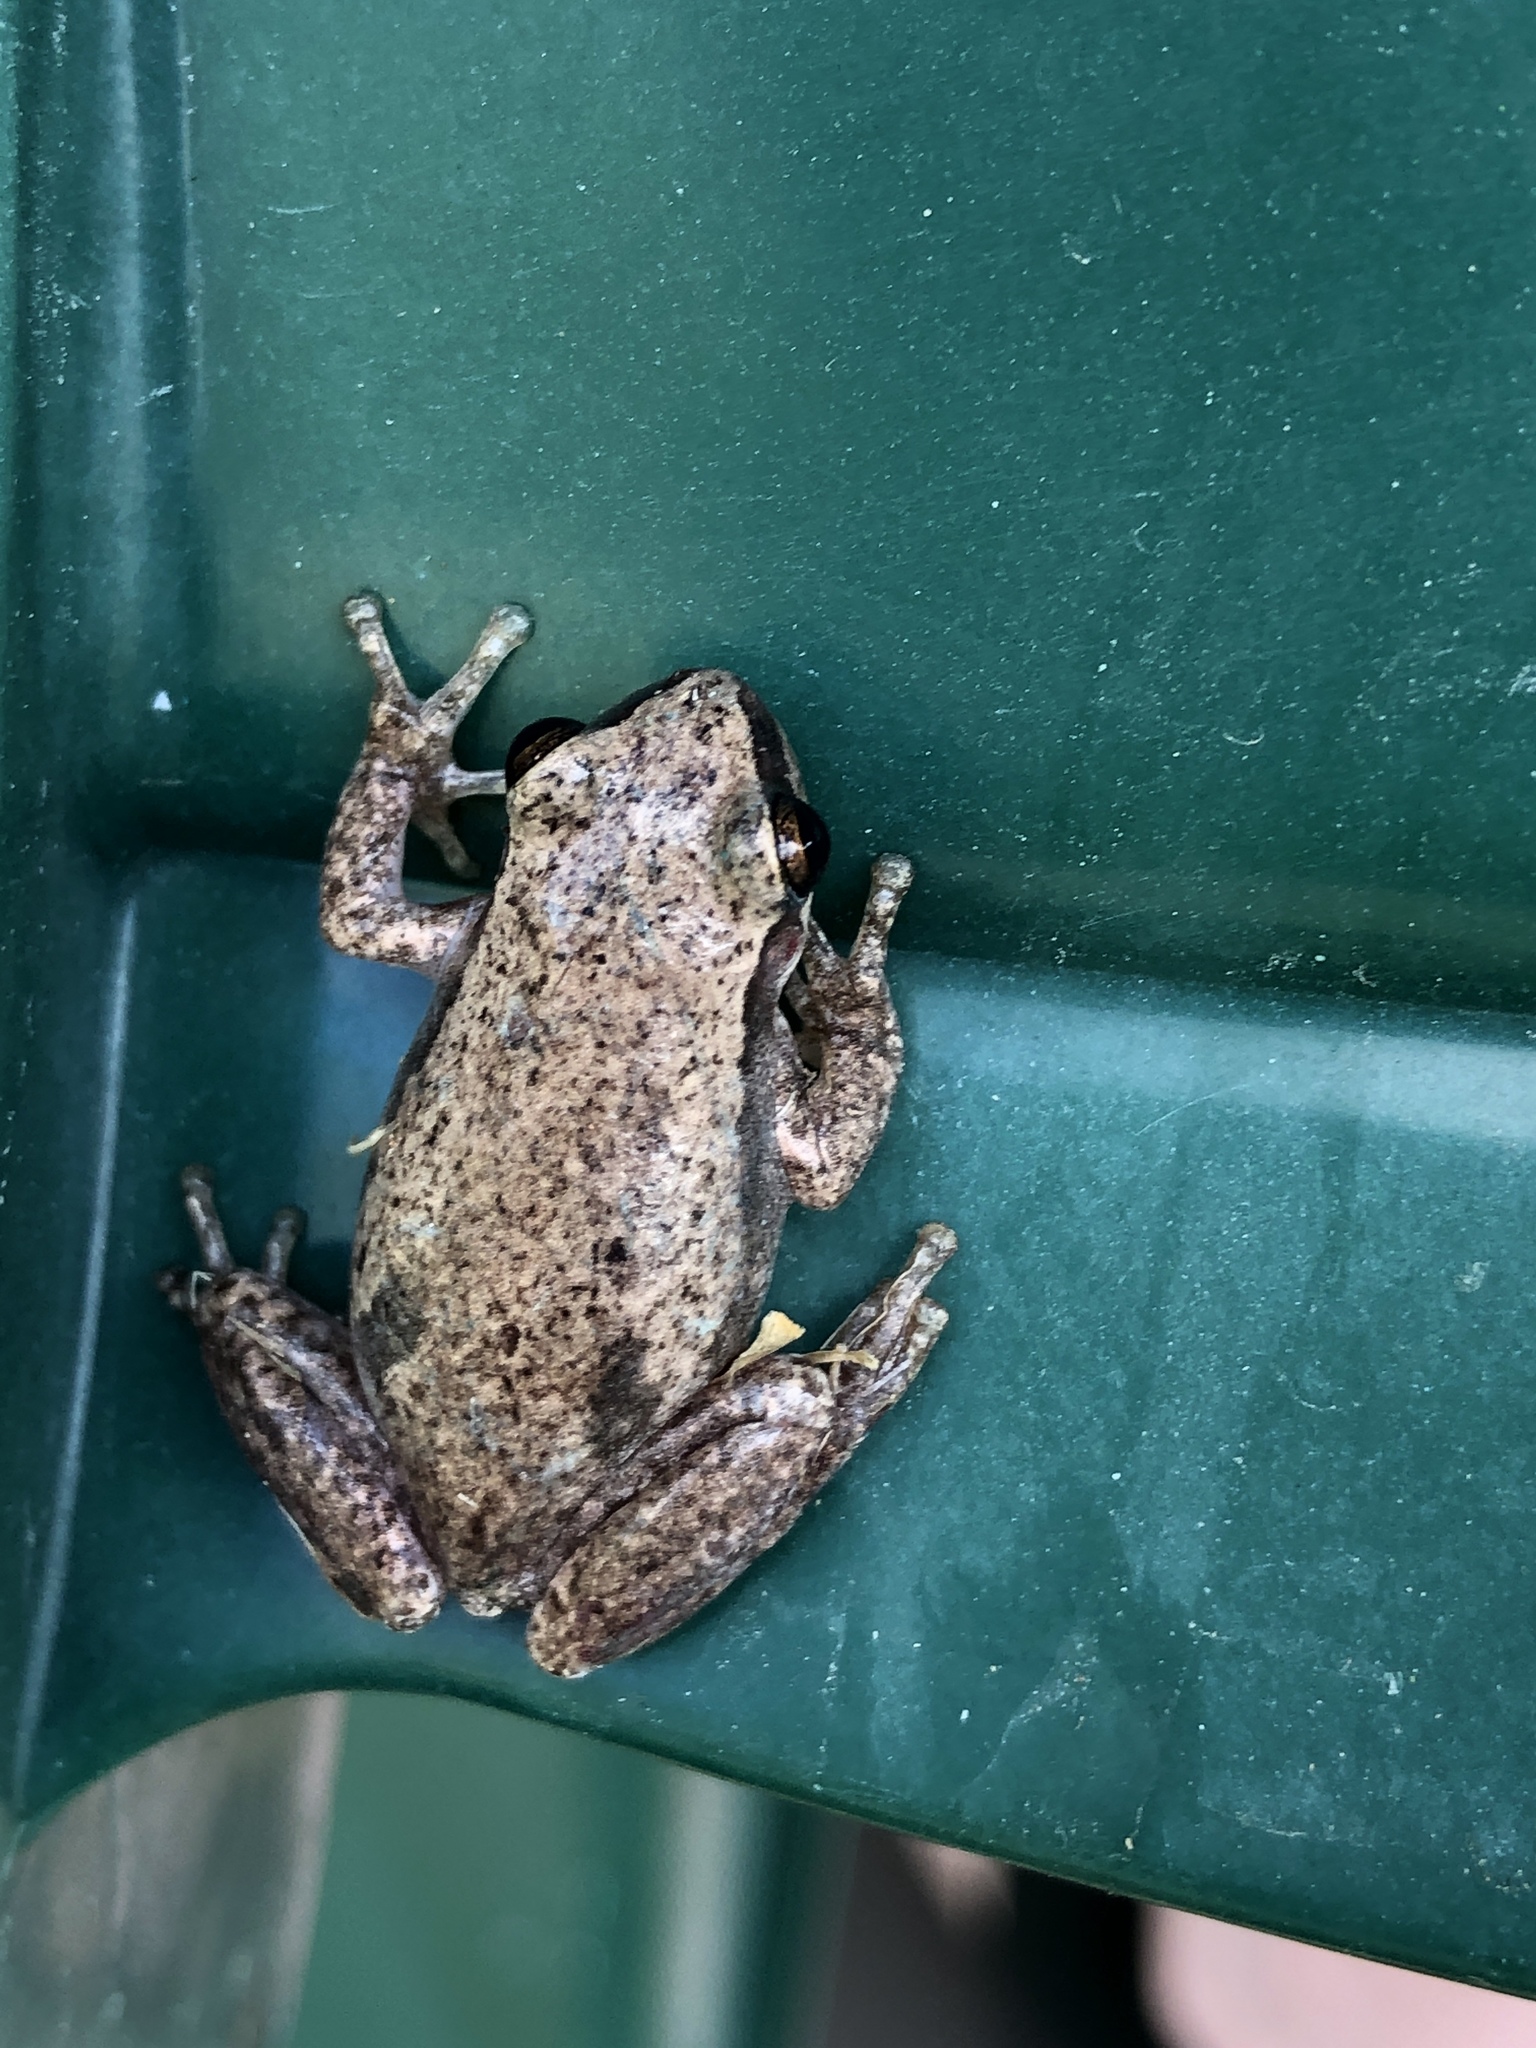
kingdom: Animalia
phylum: Chordata
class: Amphibia
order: Anura
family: Pelodryadidae
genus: Litoria
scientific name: Litoria rubella
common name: Desert tree frog
